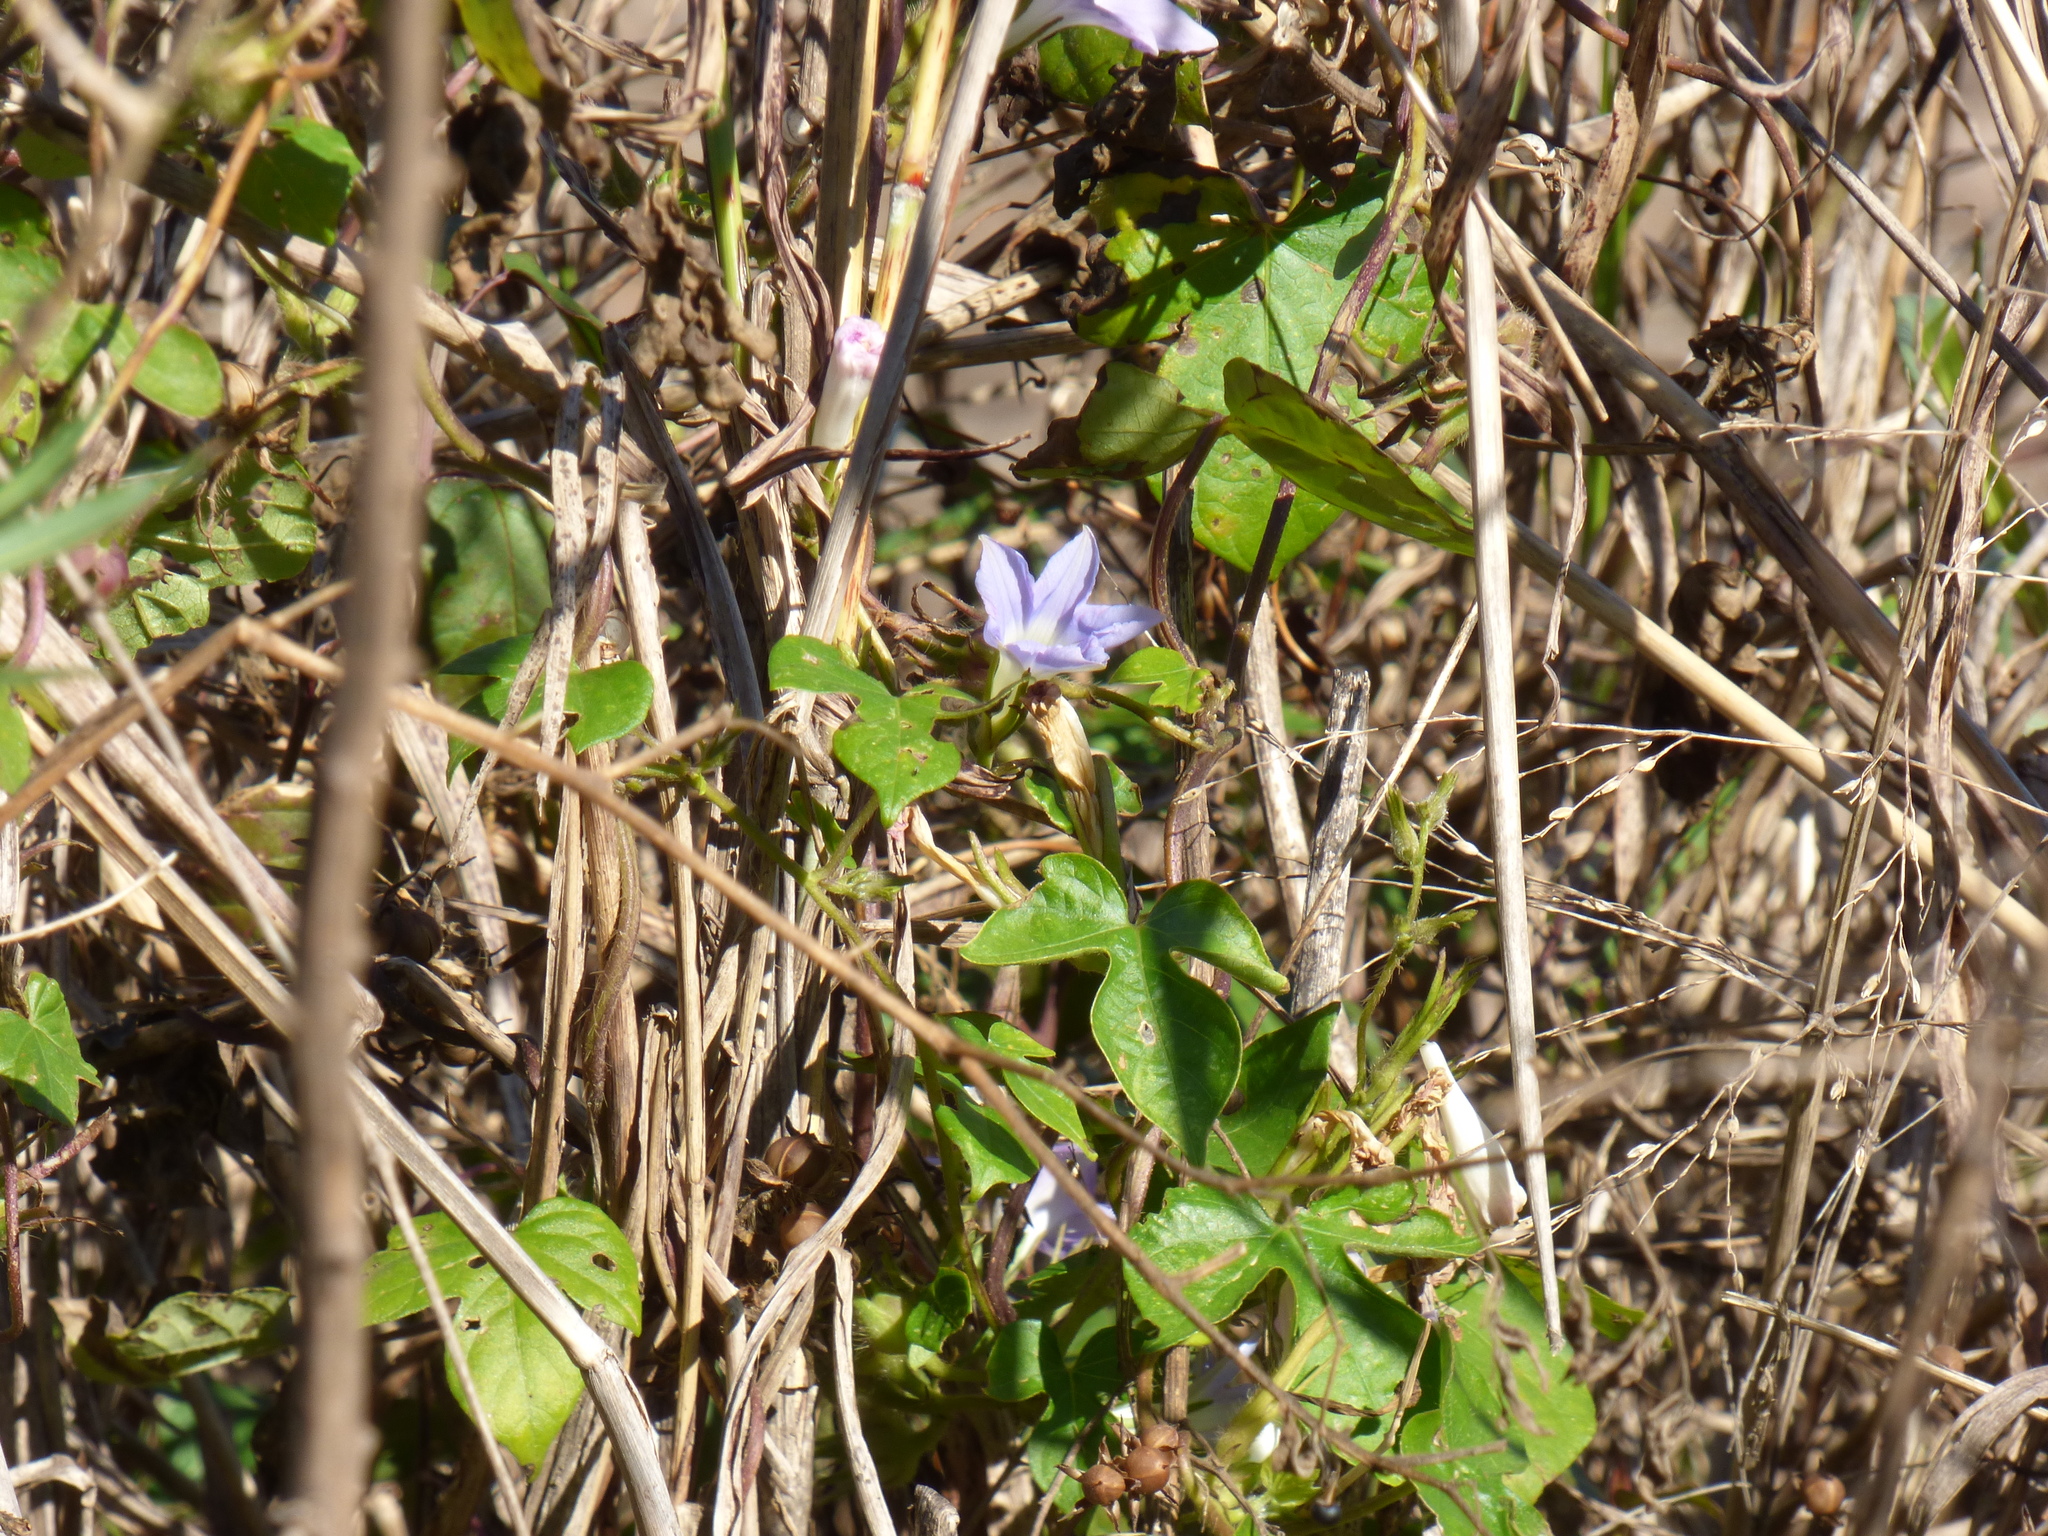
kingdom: Plantae
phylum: Tracheophyta
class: Magnoliopsida
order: Solanales
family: Convolvulaceae
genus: Ipomoea
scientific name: Ipomoea nil
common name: Japanese morning-glory
